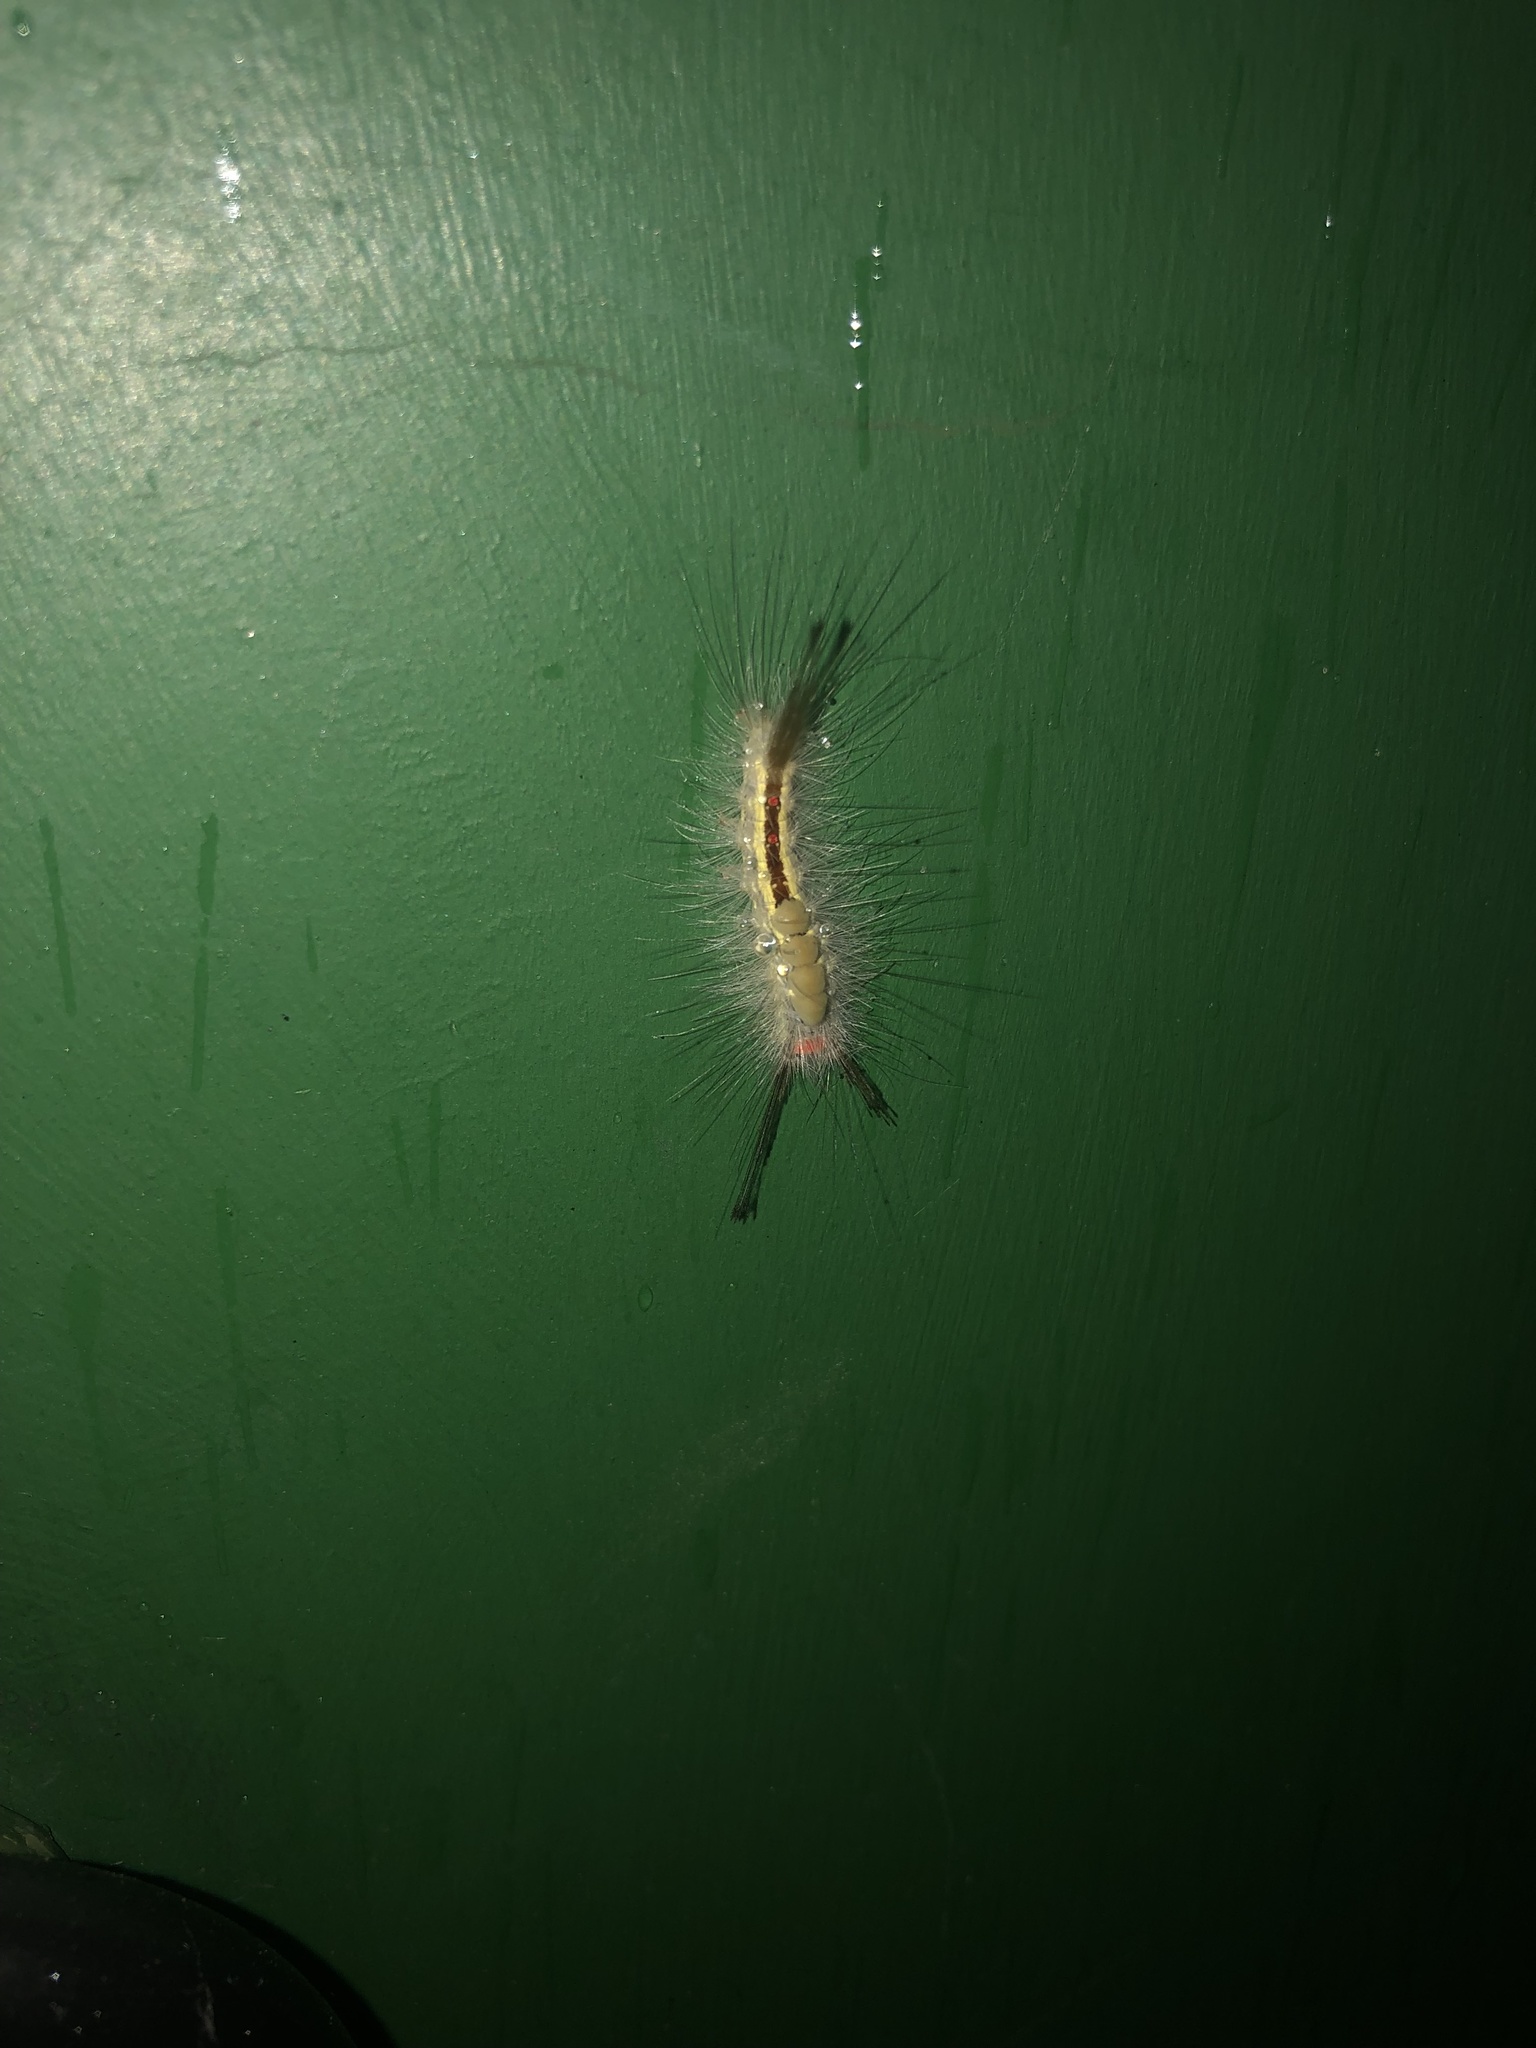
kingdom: Animalia
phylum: Arthropoda
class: Insecta
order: Lepidoptera
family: Erebidae
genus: Orgyia
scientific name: Orgyia leucostigma
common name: White-marked tussock moth
